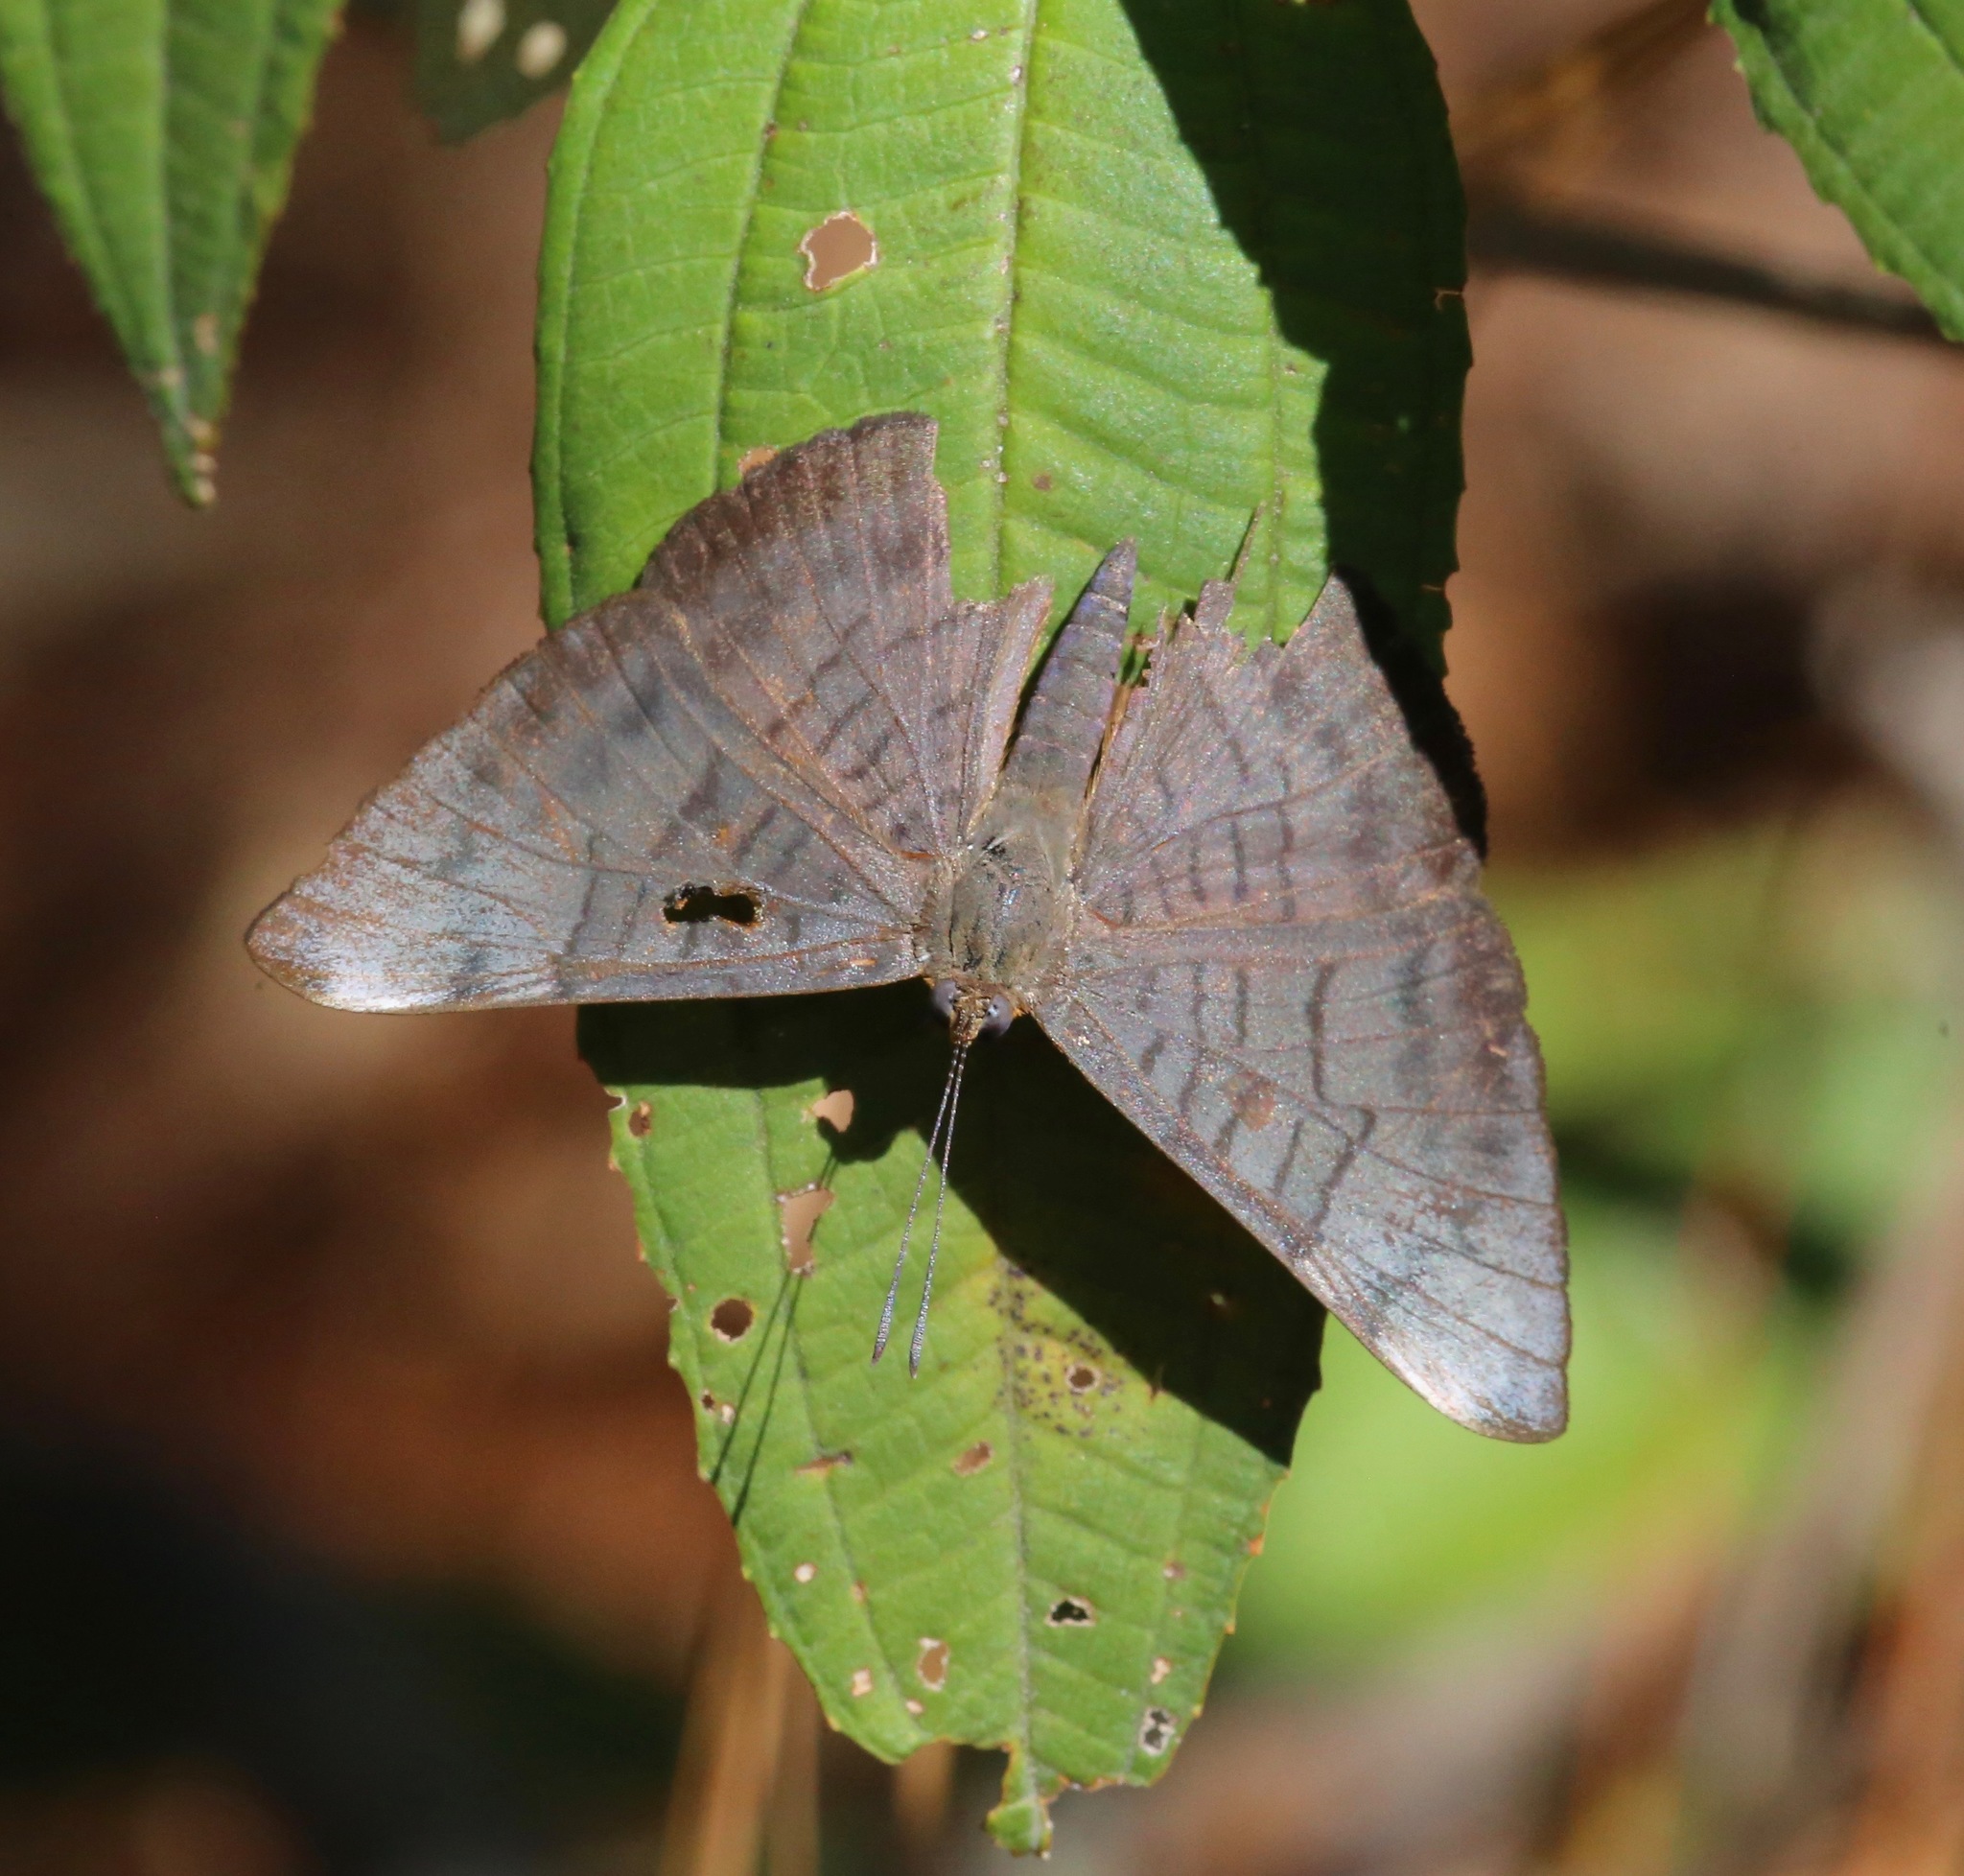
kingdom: Animalia
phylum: Arthropoda
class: Insecta
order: Lepidoptera
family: Lycaenidae
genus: Emesis
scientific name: Emesis lucinda
